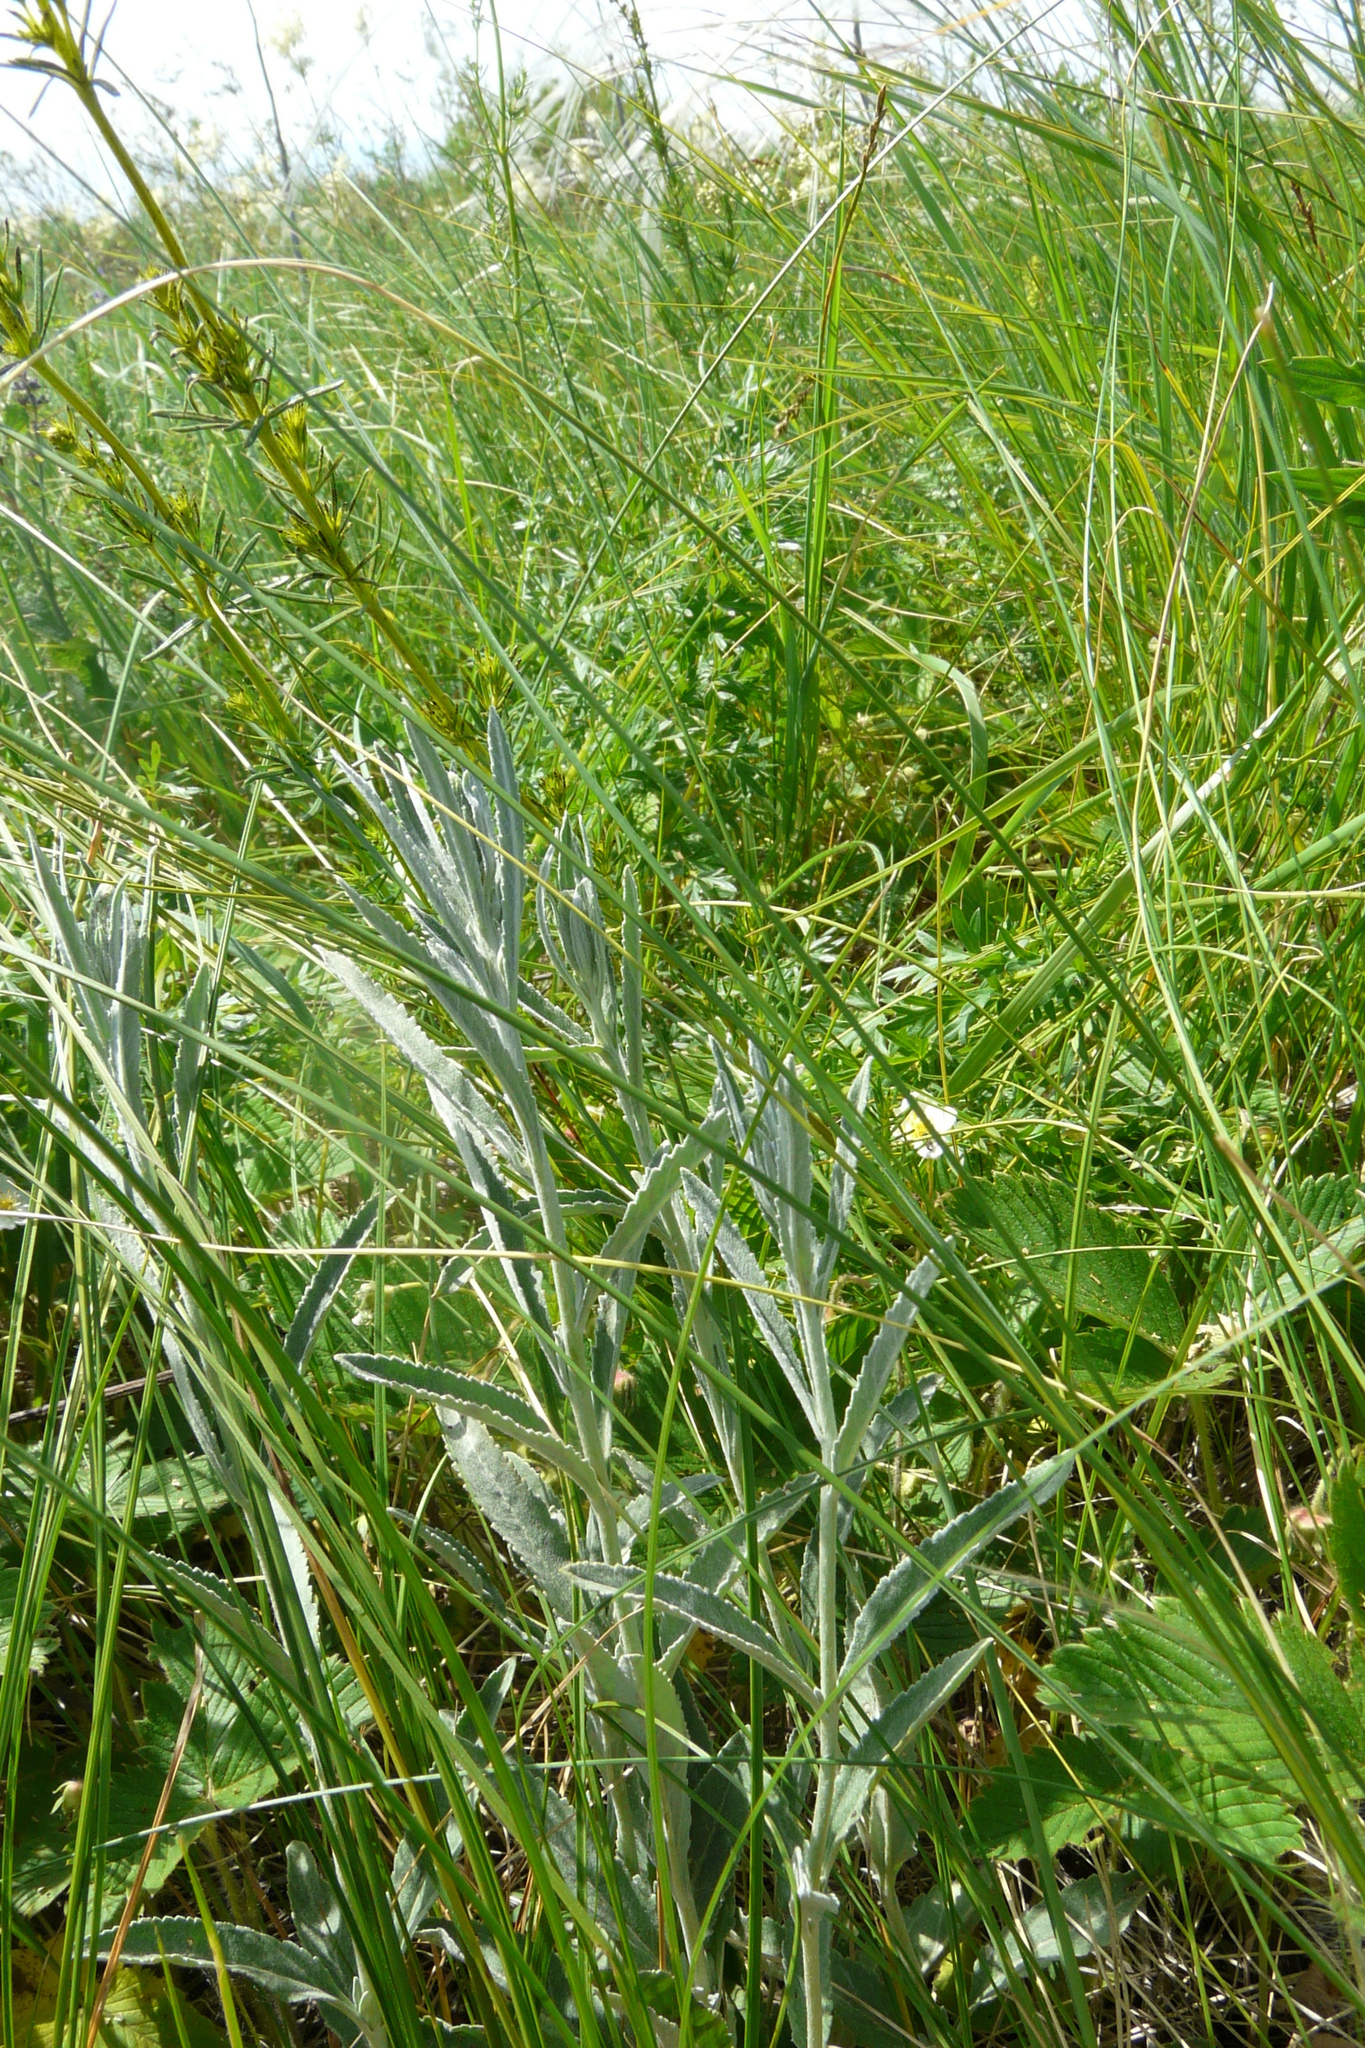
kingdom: Plantae
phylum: Tracheophyta
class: Magnoliopsida
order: Lamiales
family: Plantaginaceae
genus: Veronica
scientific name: Veronica incana
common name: Silver speedwell
